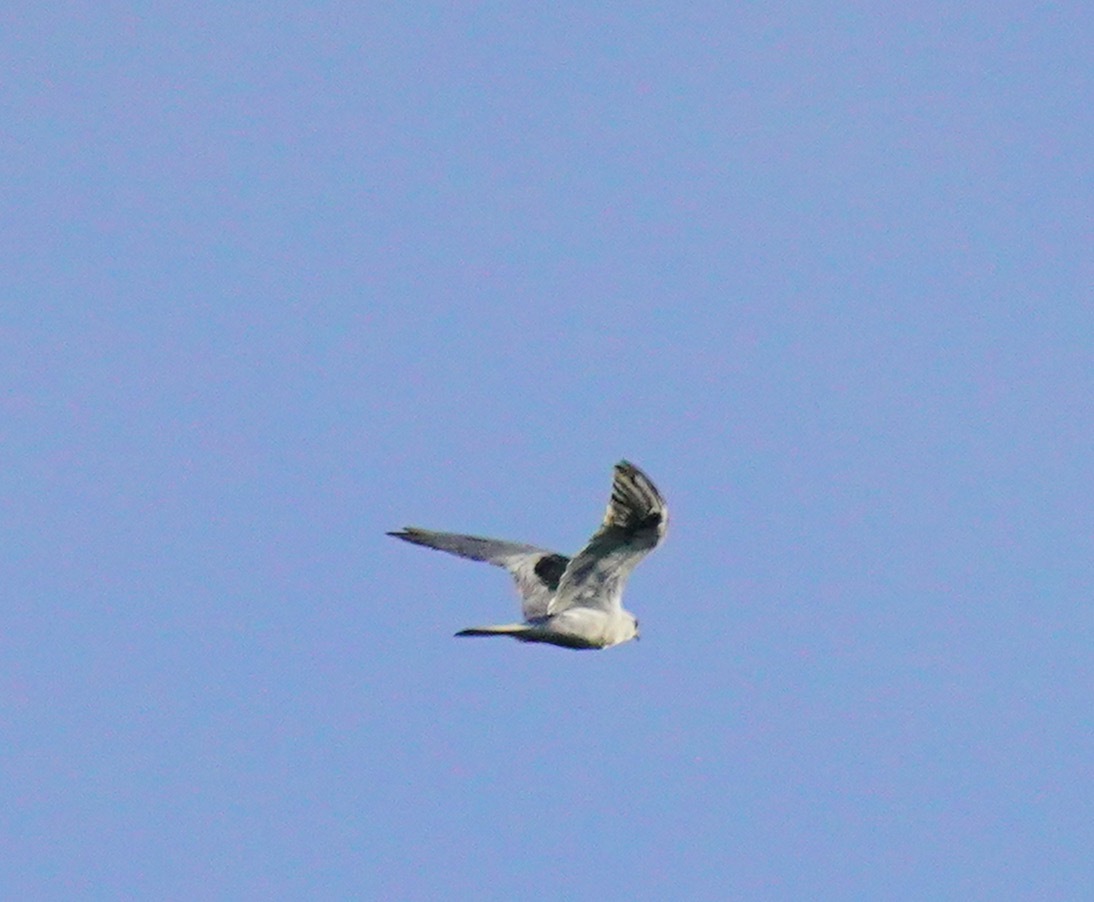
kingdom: Animalia
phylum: Chordata
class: Aves
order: Accipitriformes
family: Accipitridae
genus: Elanus
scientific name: Elanus leucurus
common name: White-tailed kite
